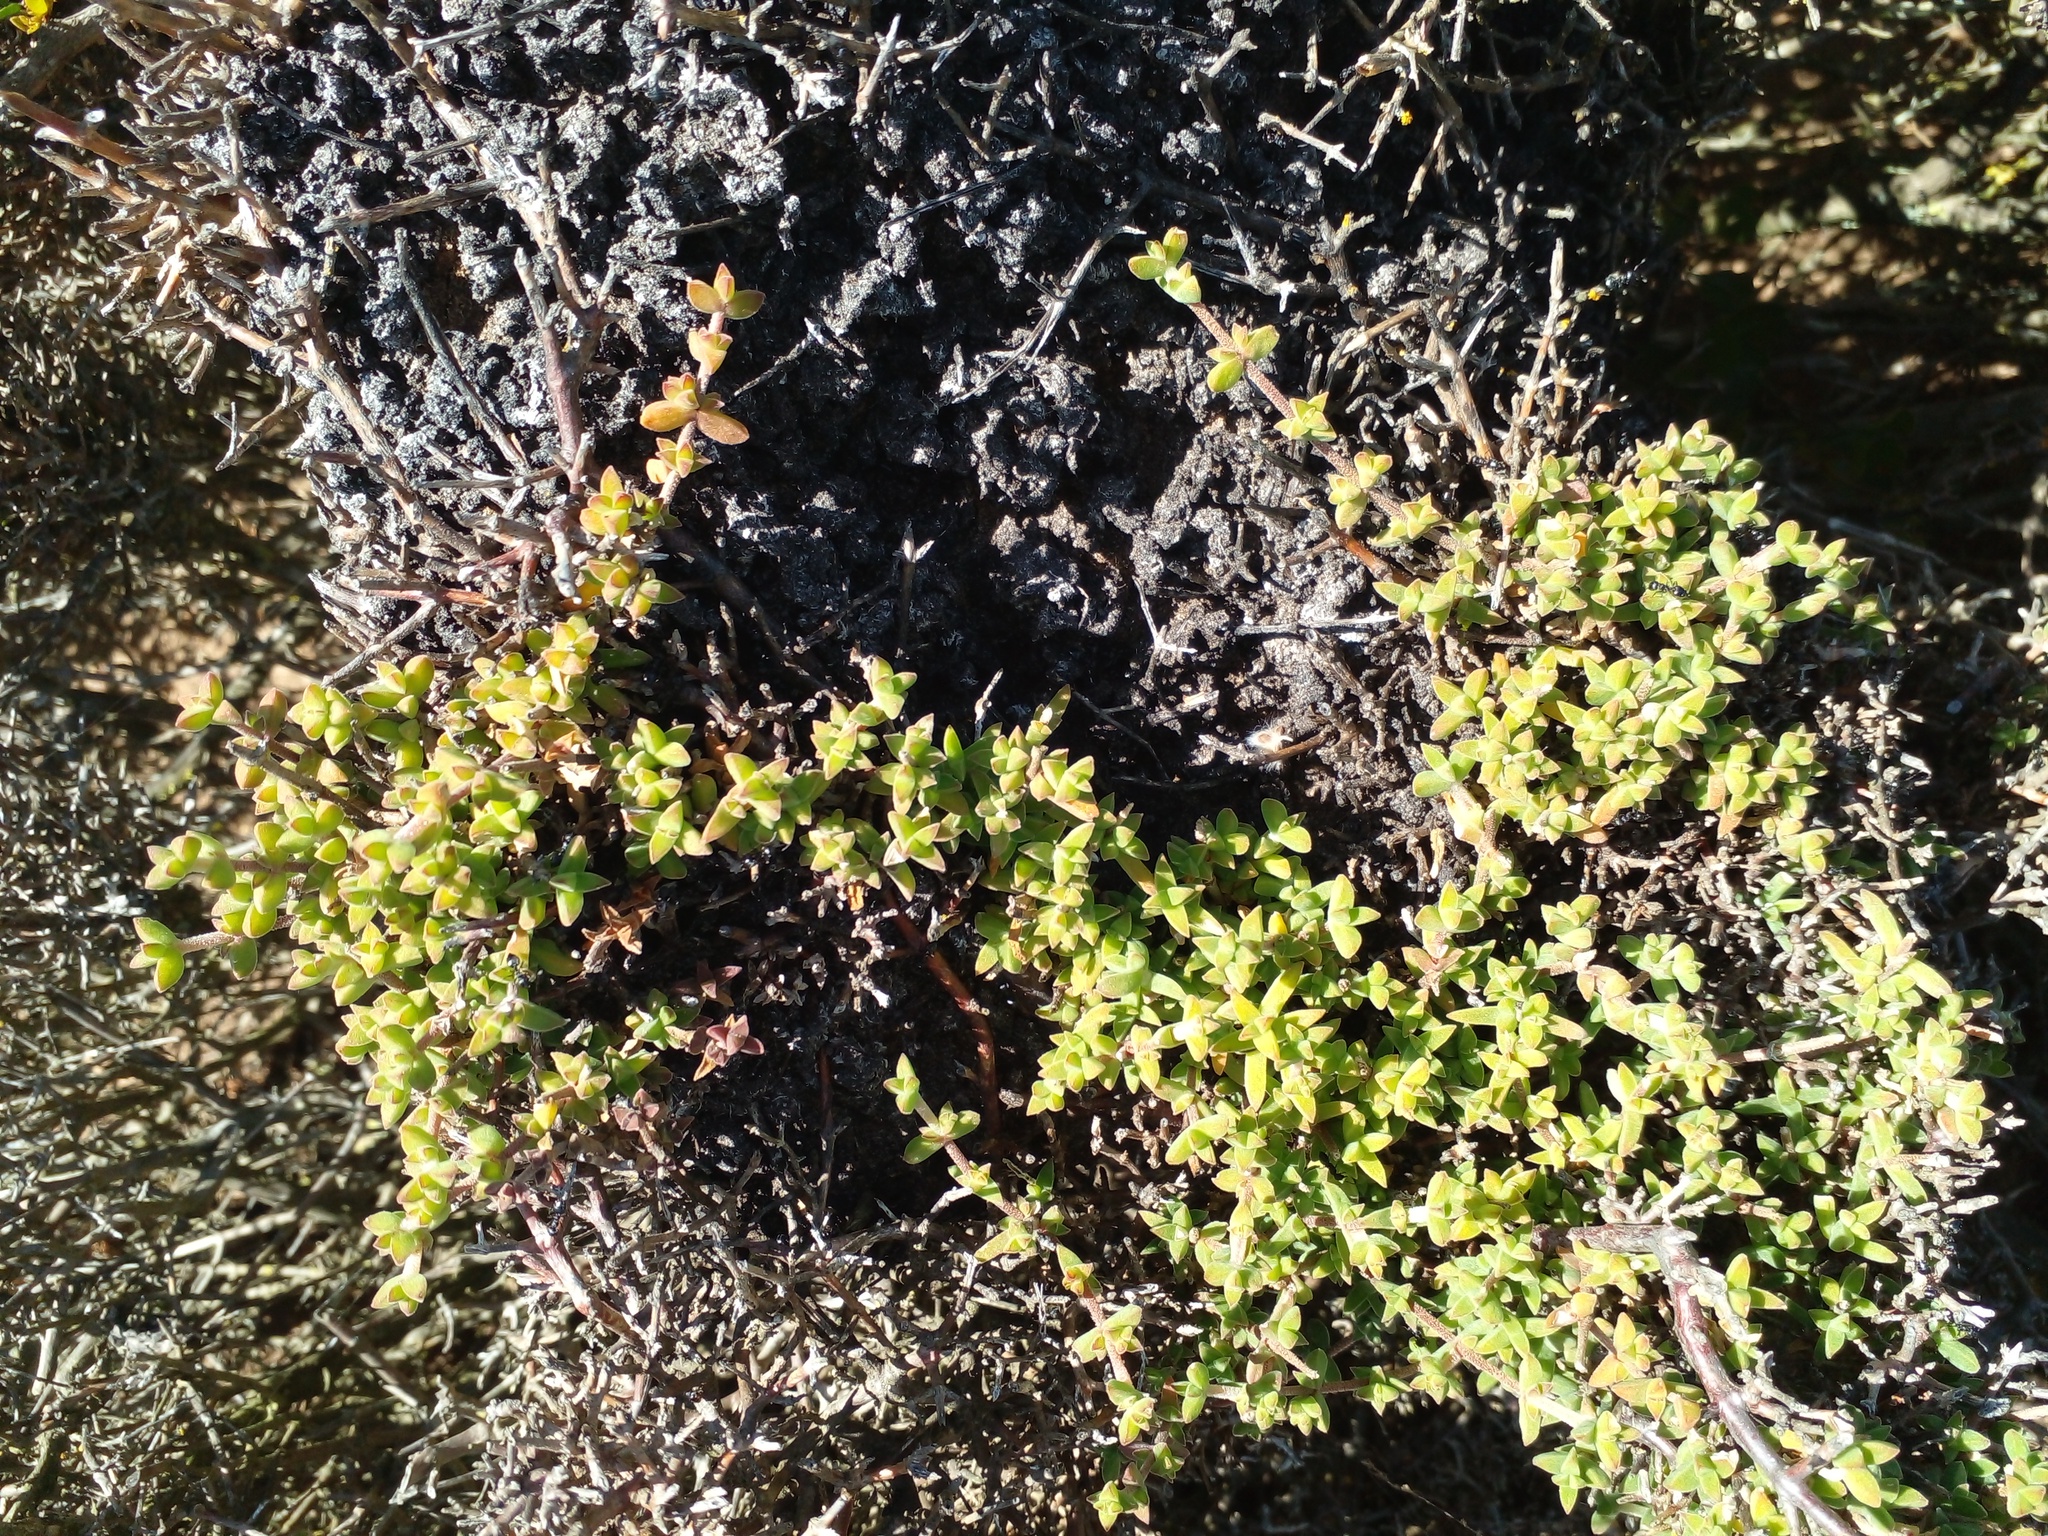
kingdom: Plantae
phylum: Tracheophyta
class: Magnoliopsida
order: Caryophyllales
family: Aizoaceae
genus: Drosanthemum
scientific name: Drosanthemum parvifolium
